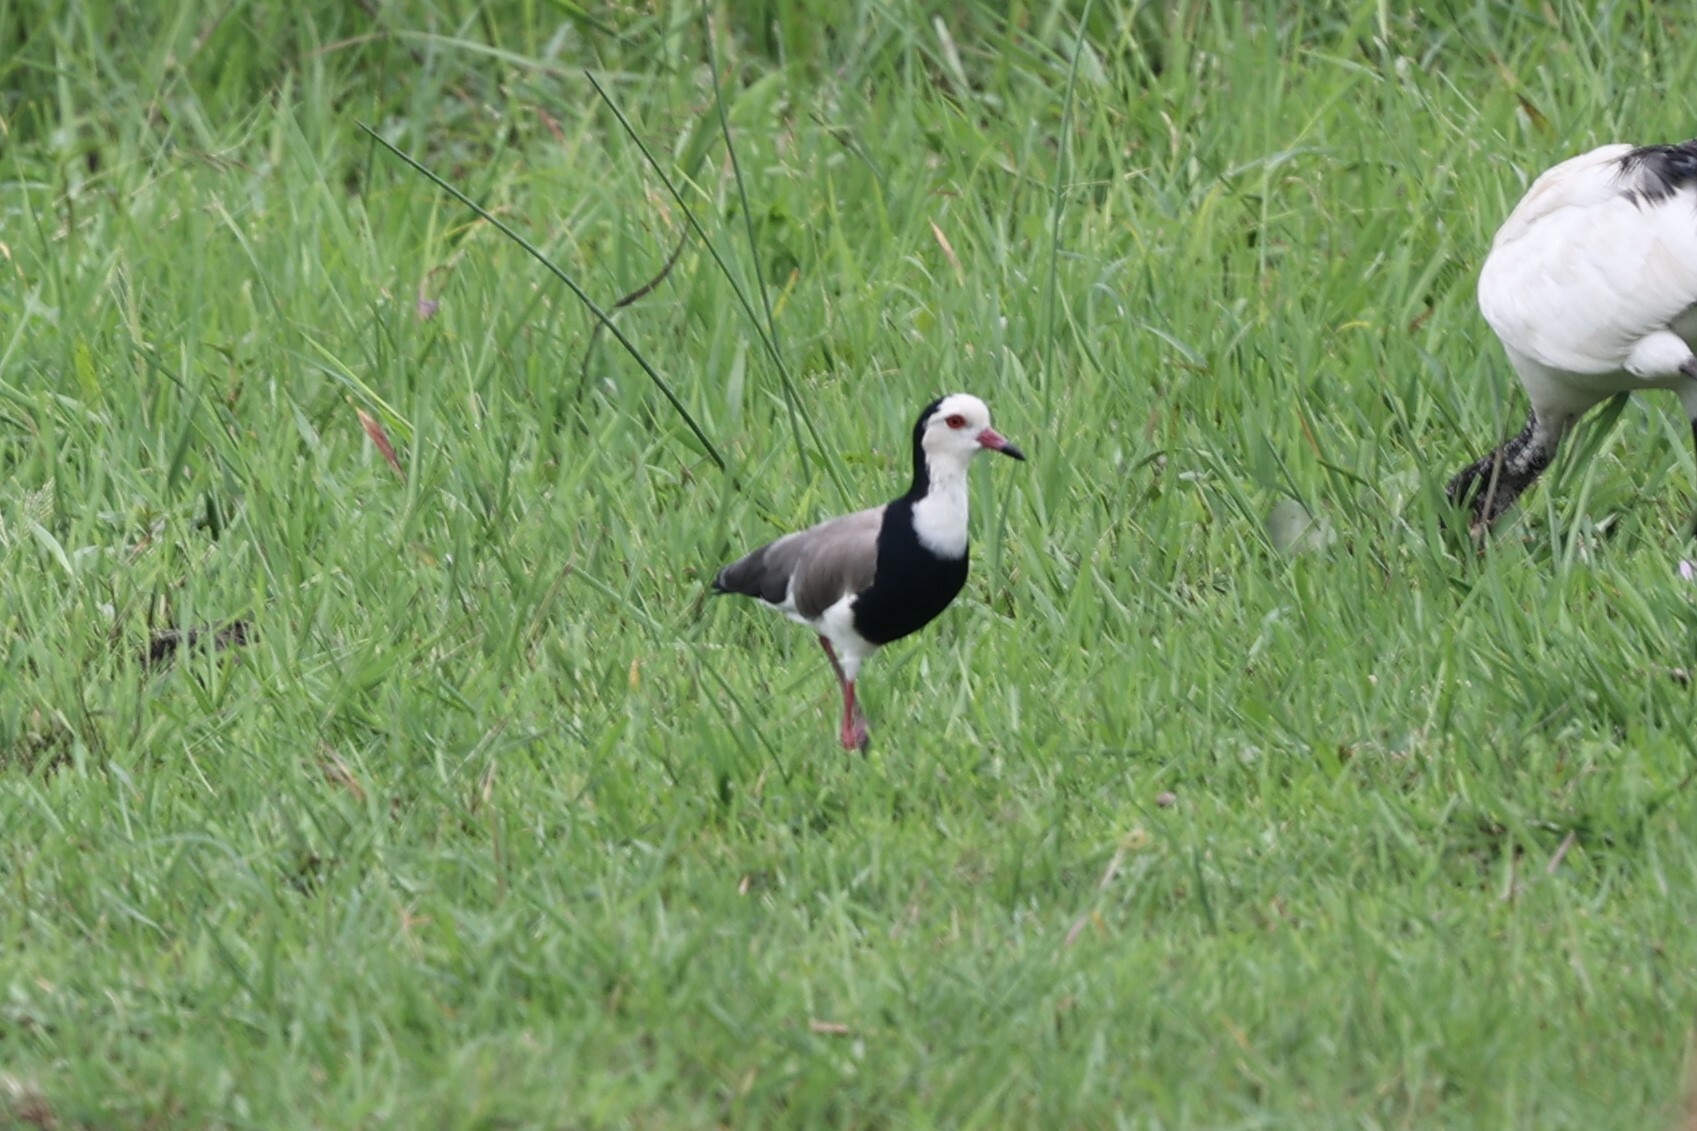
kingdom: Animalia
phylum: Chordata
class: Aves
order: Charadriiformes
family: Charadriidae
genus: Vanellus
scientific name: Vanellus crassirostris
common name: Long-toed lapwing
